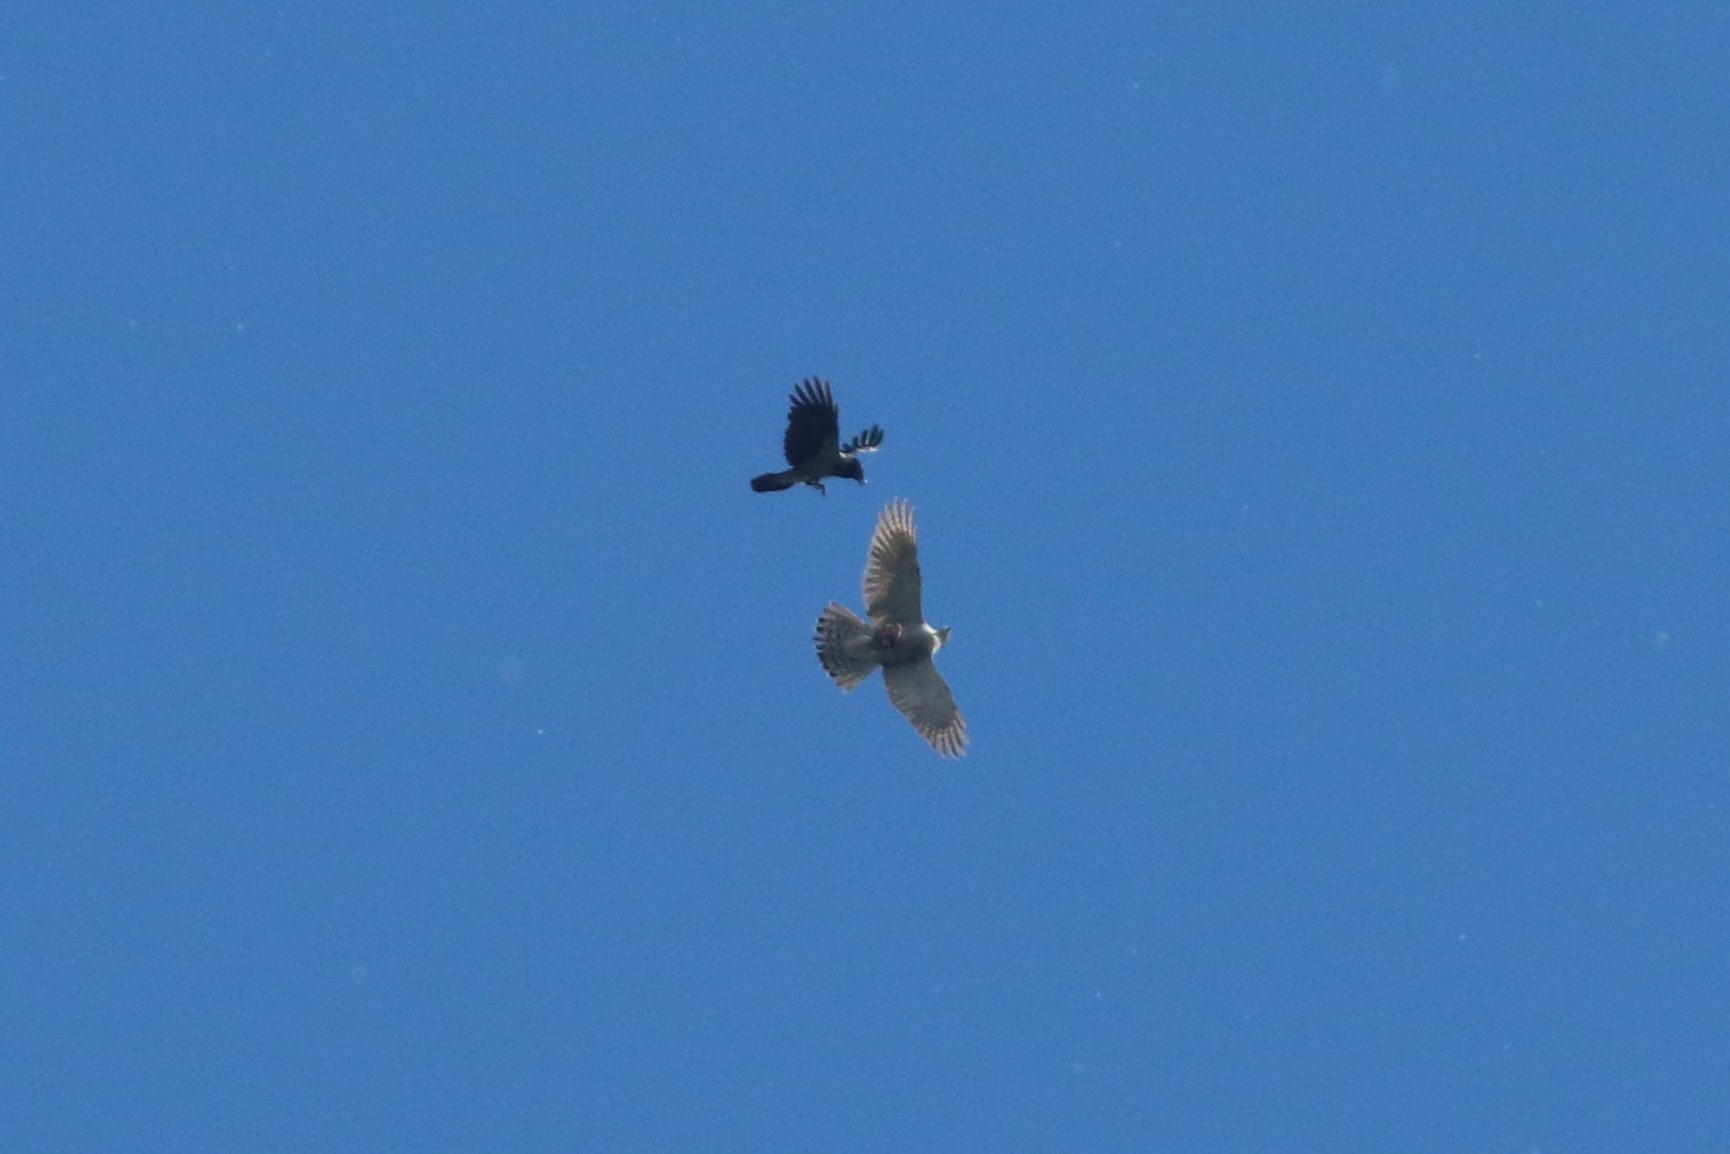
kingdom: Animalia
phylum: Chordata
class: Aves
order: Accipitriformes
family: Accipitridae
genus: Accipiter
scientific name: Accipiter gentilis
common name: Northern goshawk
